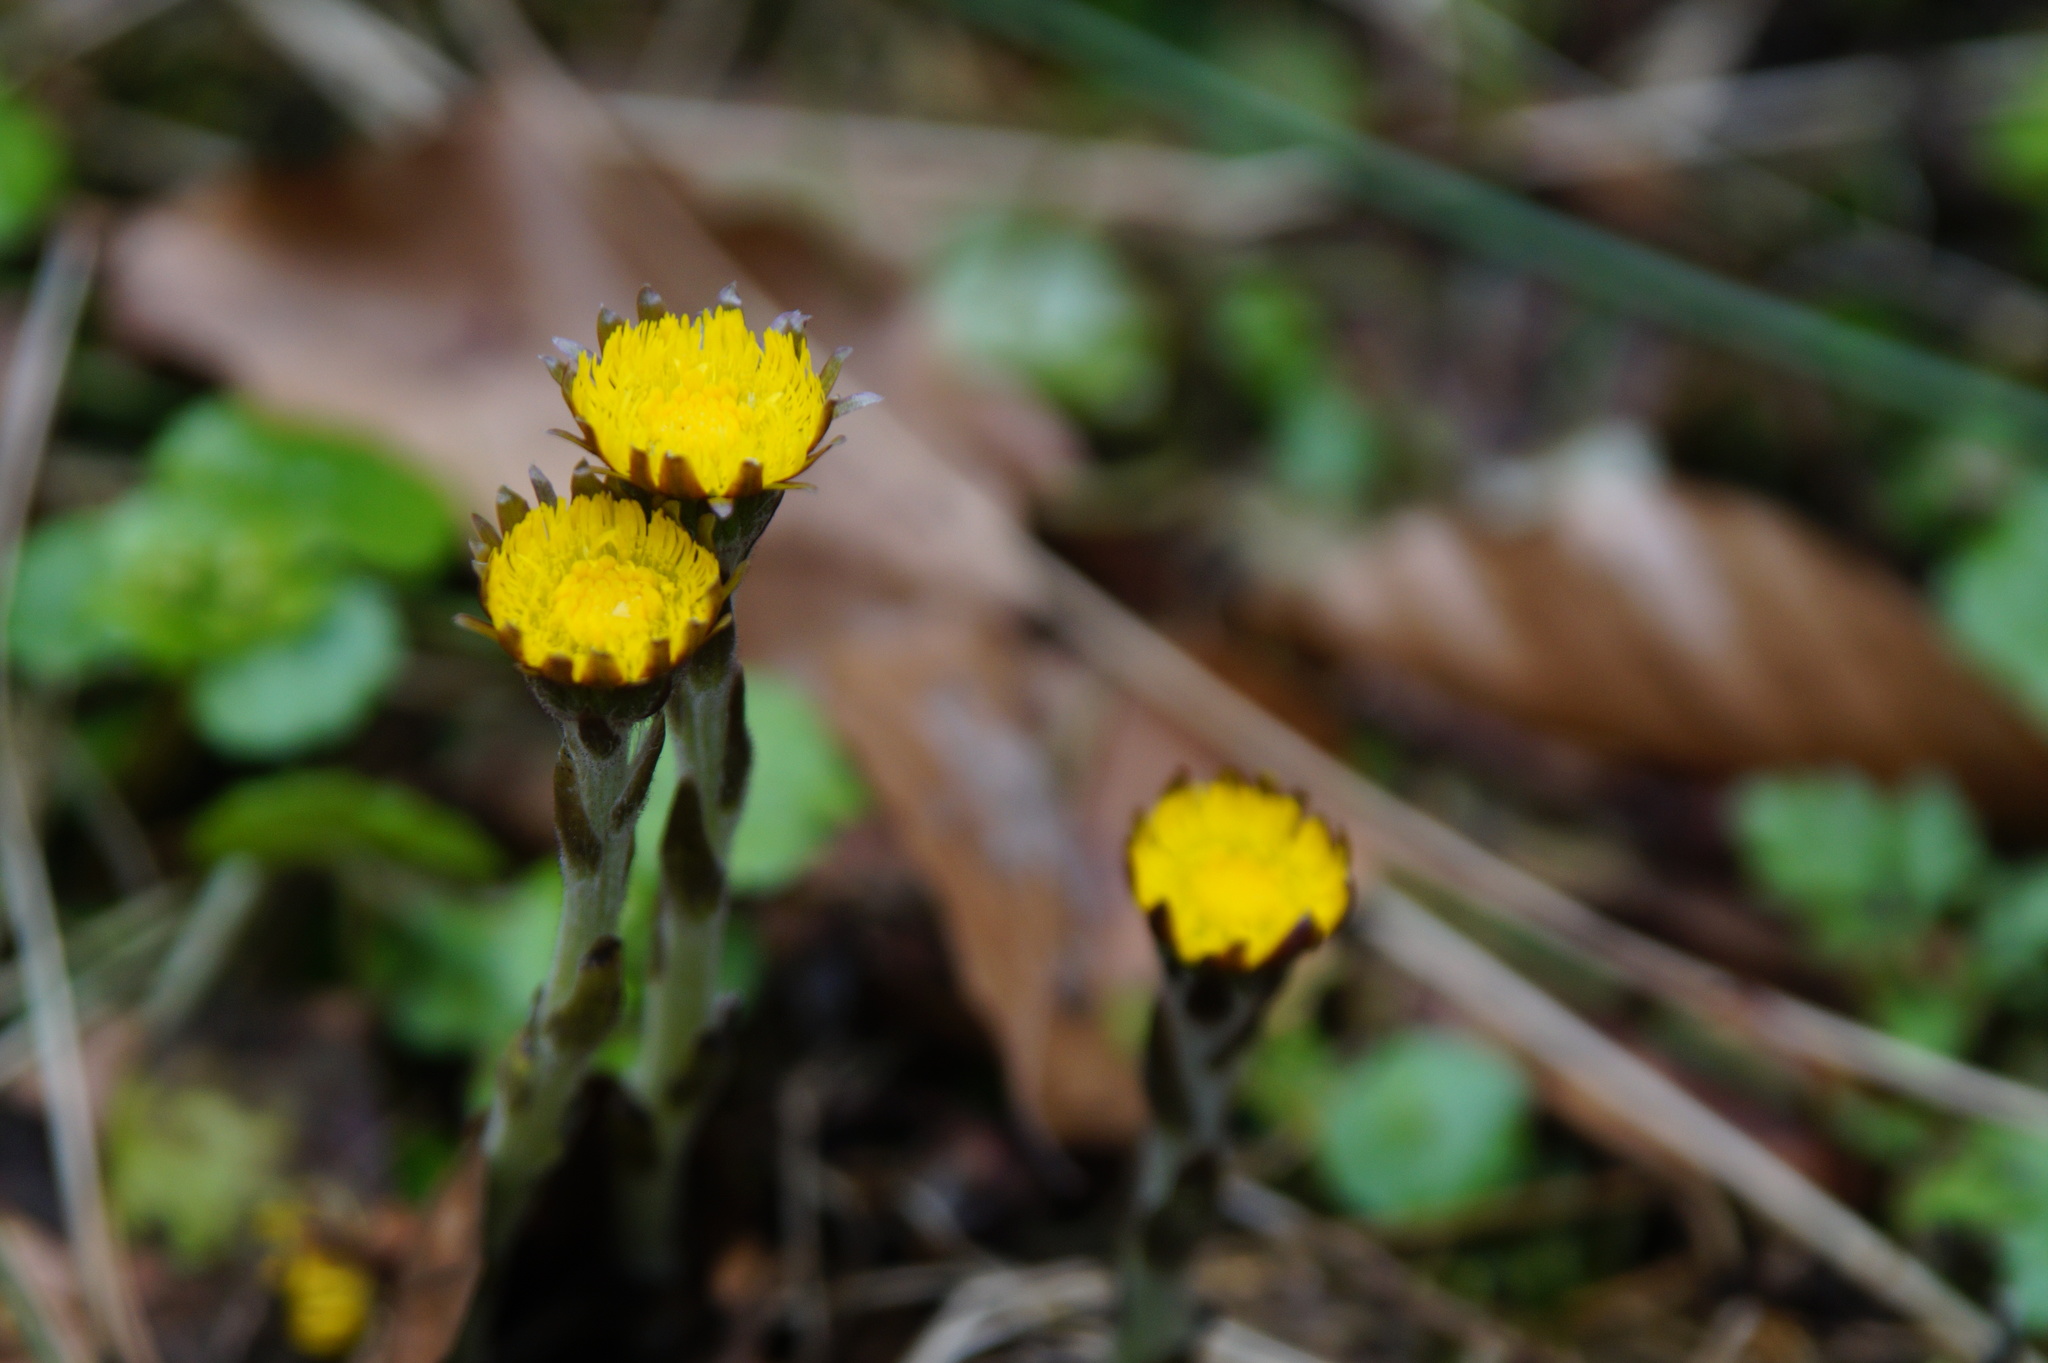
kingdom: Plantae
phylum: Tracheophyta
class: Magnoliopsida
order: Asterales
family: Asteraceae
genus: Tussilago
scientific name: Tussilago farfara
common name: Coltsfoot
